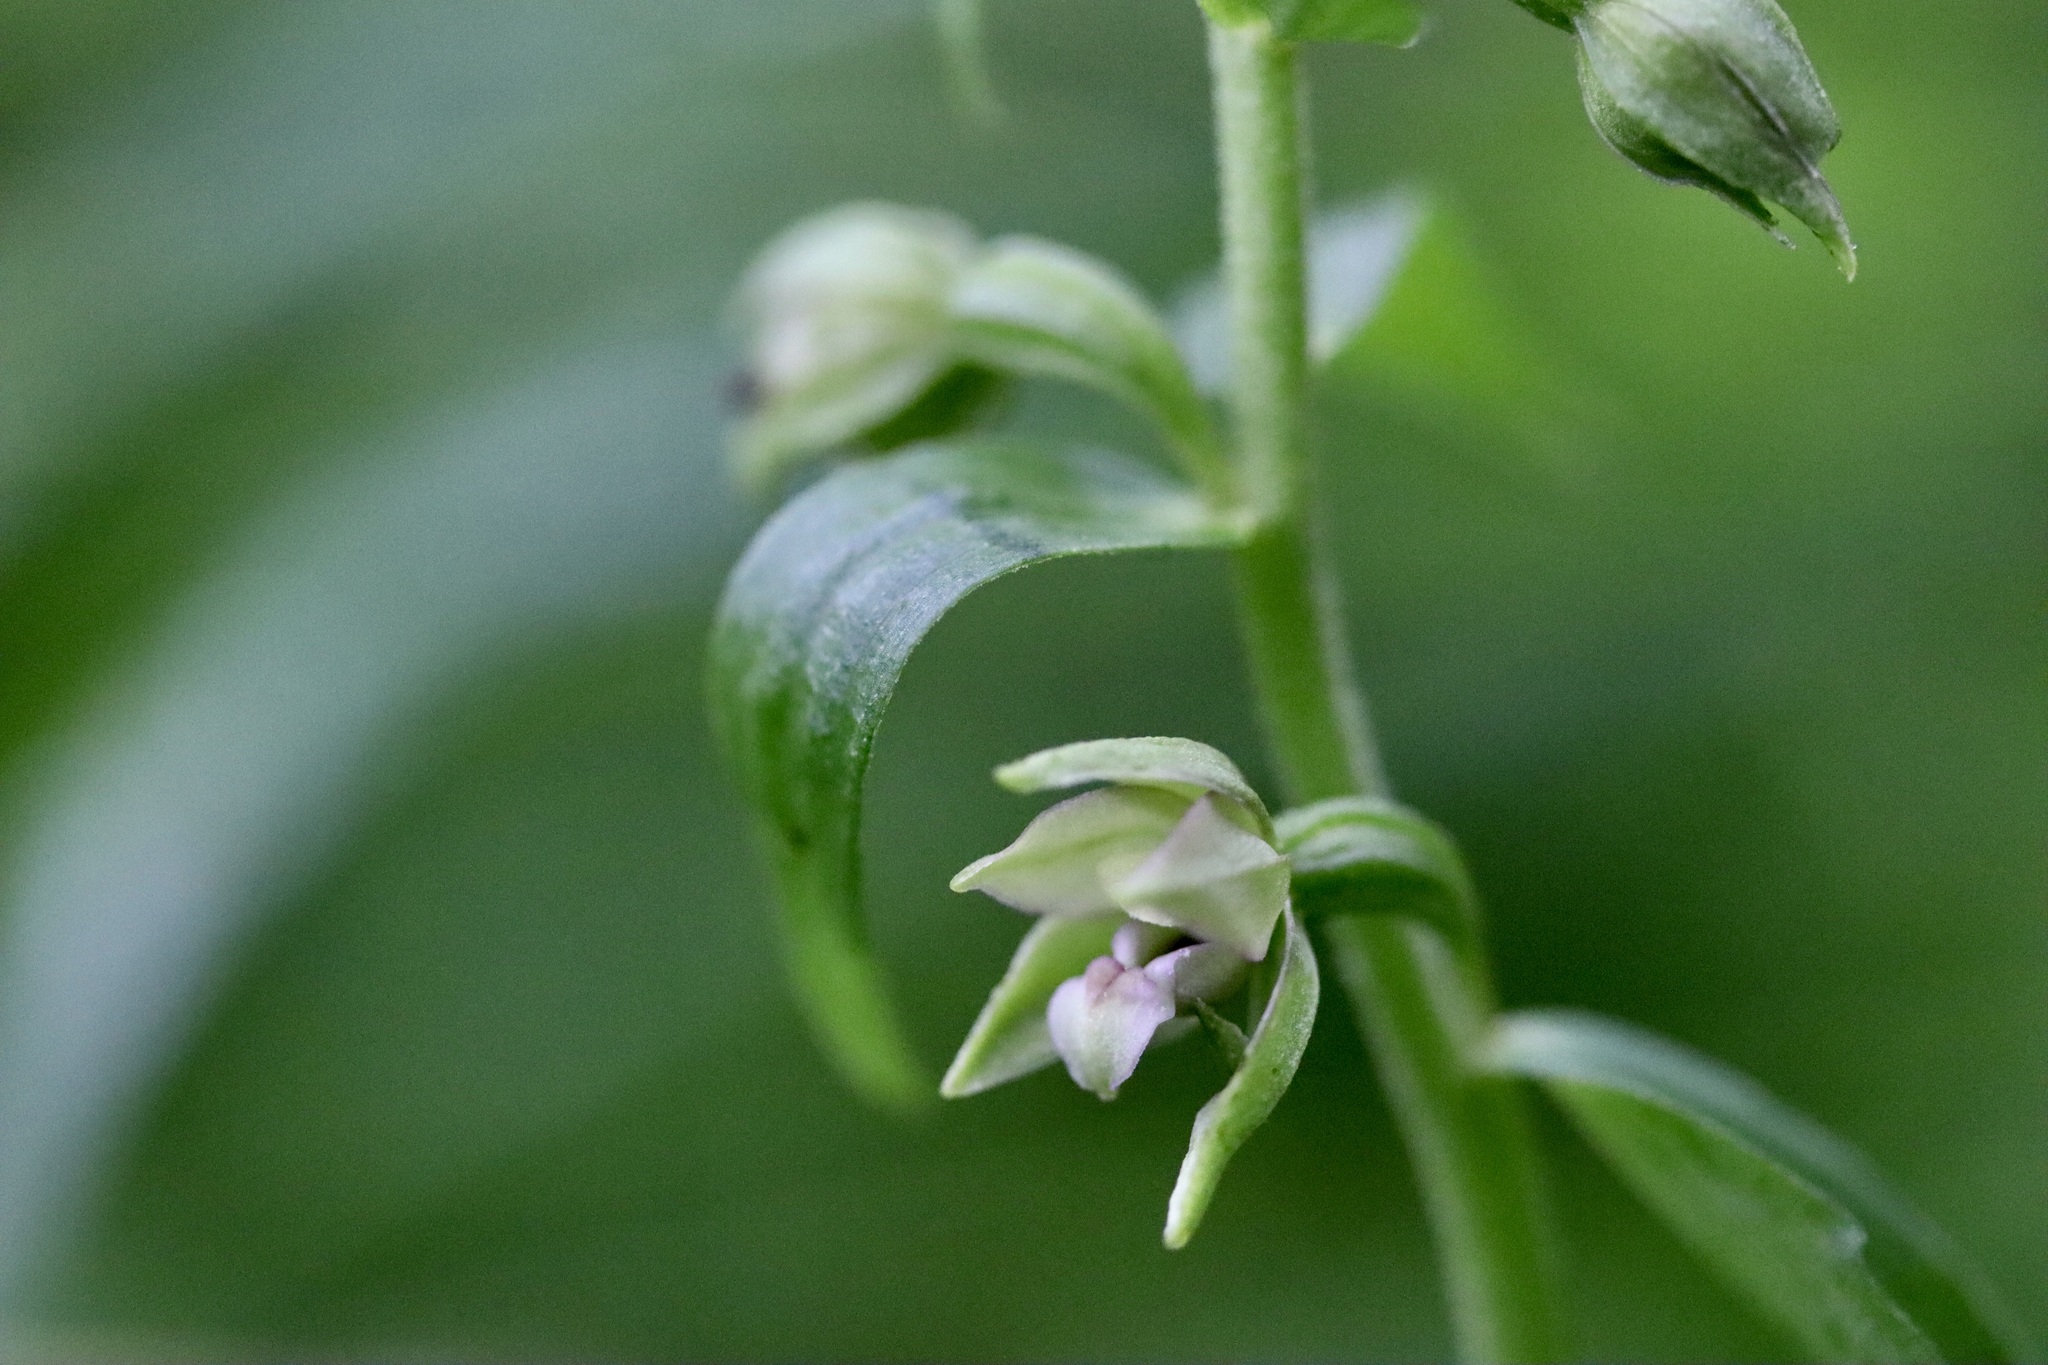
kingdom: Plantae
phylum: Tracheophyta
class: Liliopsida
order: Asparagales
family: Orchidaceae
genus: Epipactis
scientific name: Epipactis helleborine
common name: Broad-leaved helleborine
